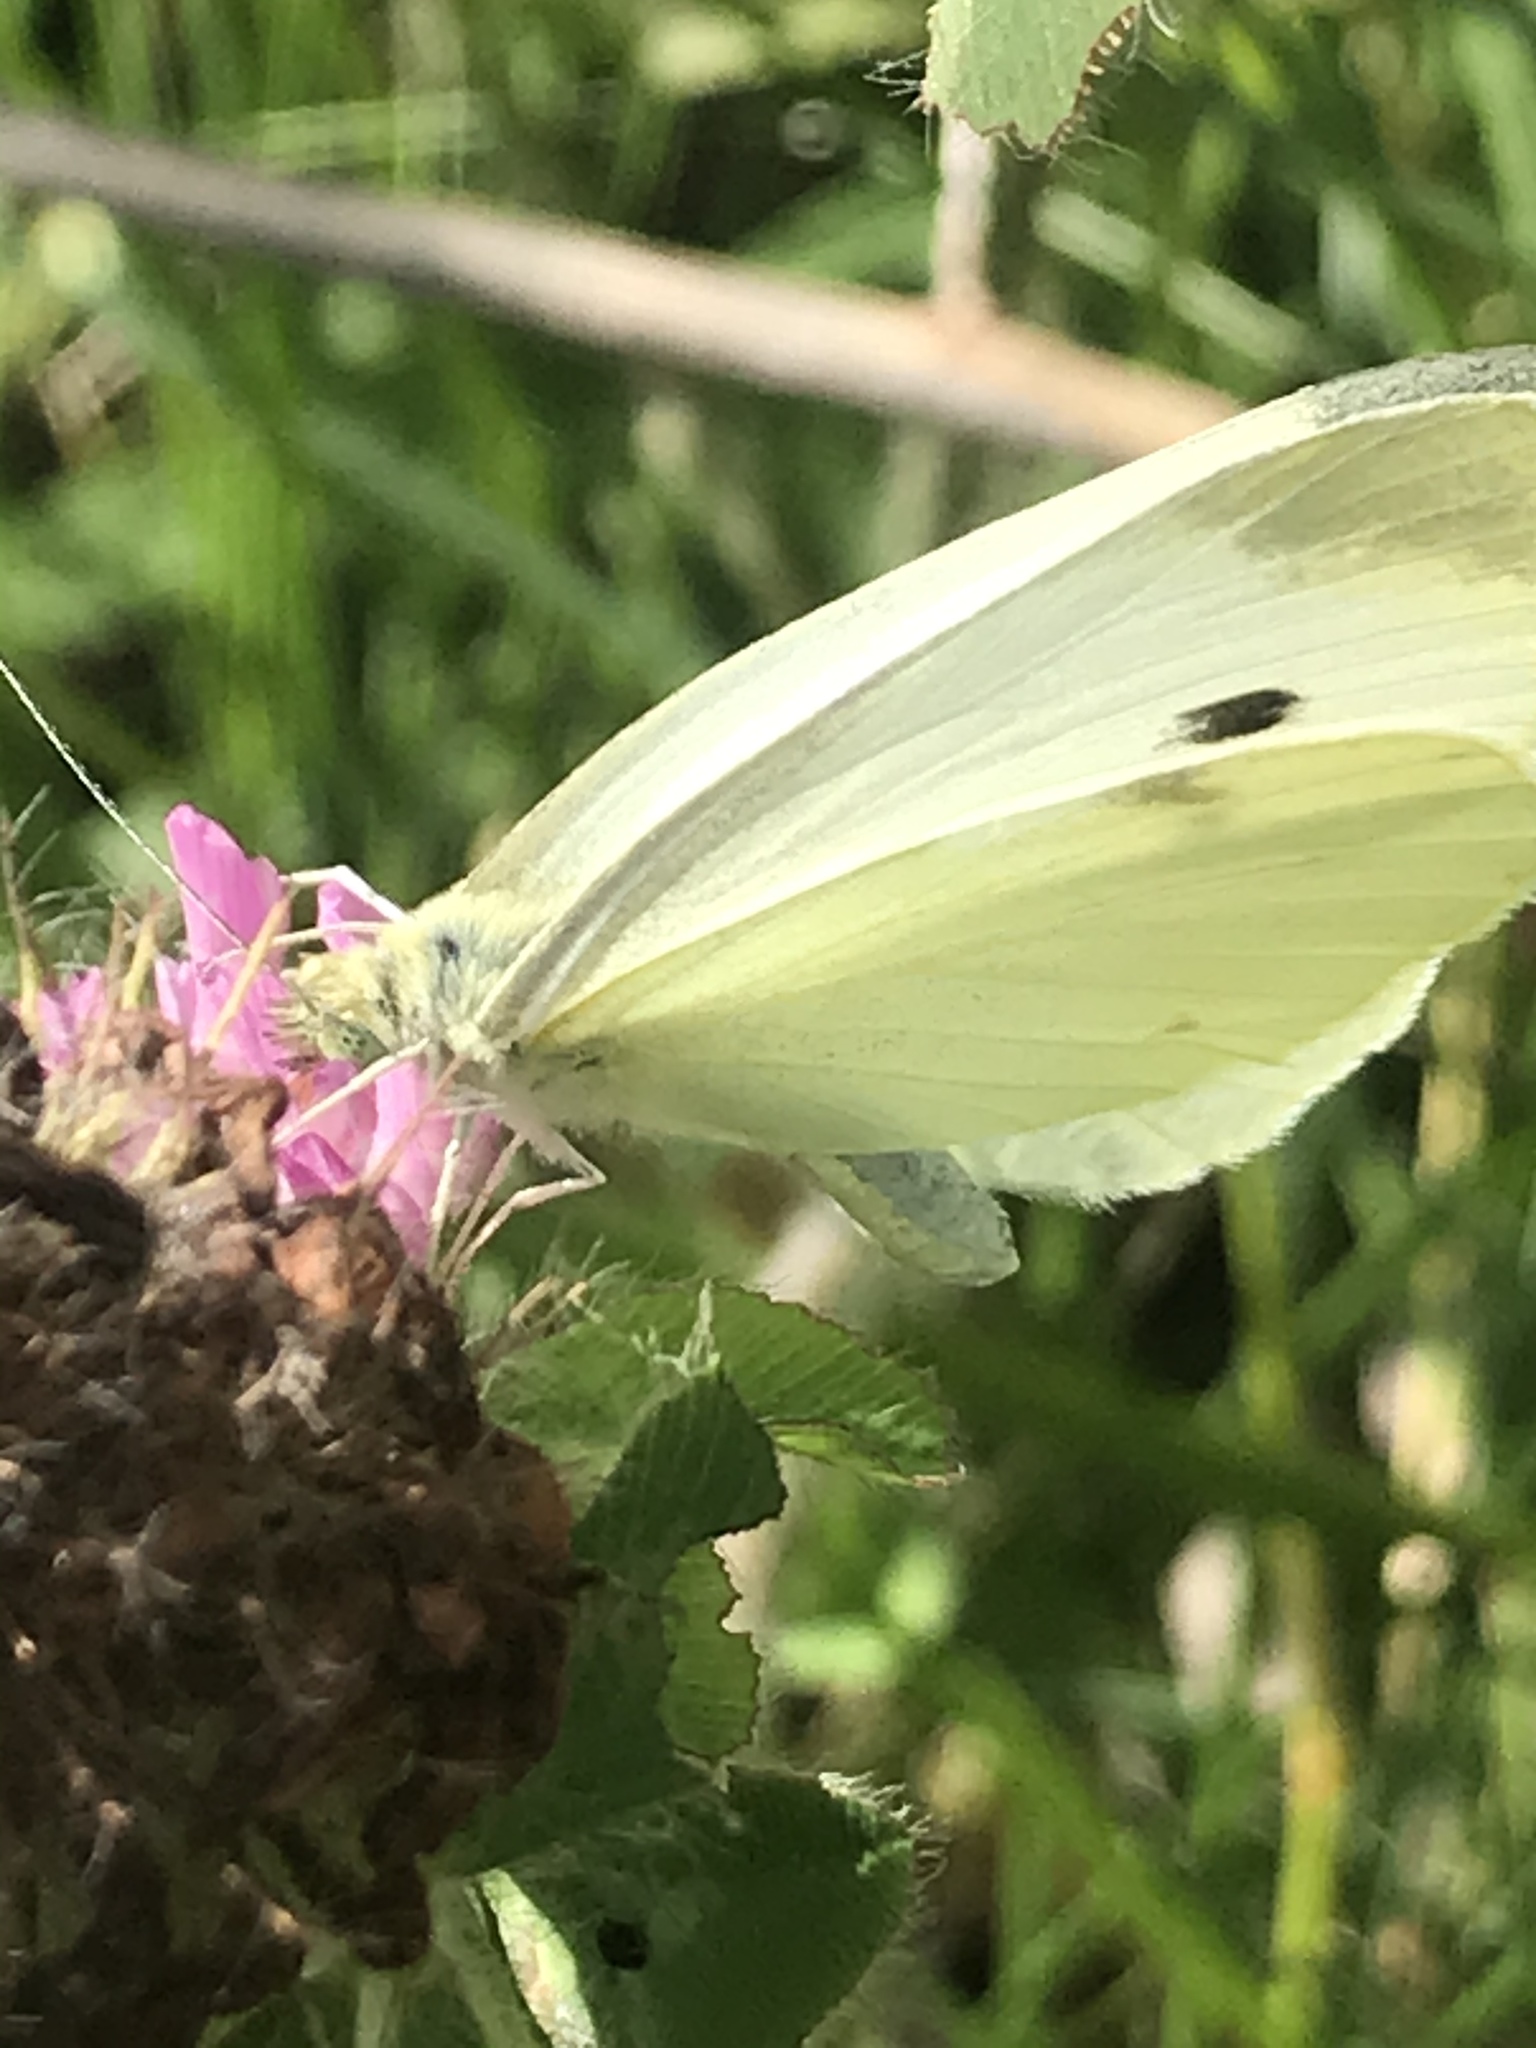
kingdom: Animalia
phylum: Arthropoda
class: Insecta
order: Lepidoptera
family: Pieridae
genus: Pieris
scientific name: Pieris rapae
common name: Small white
